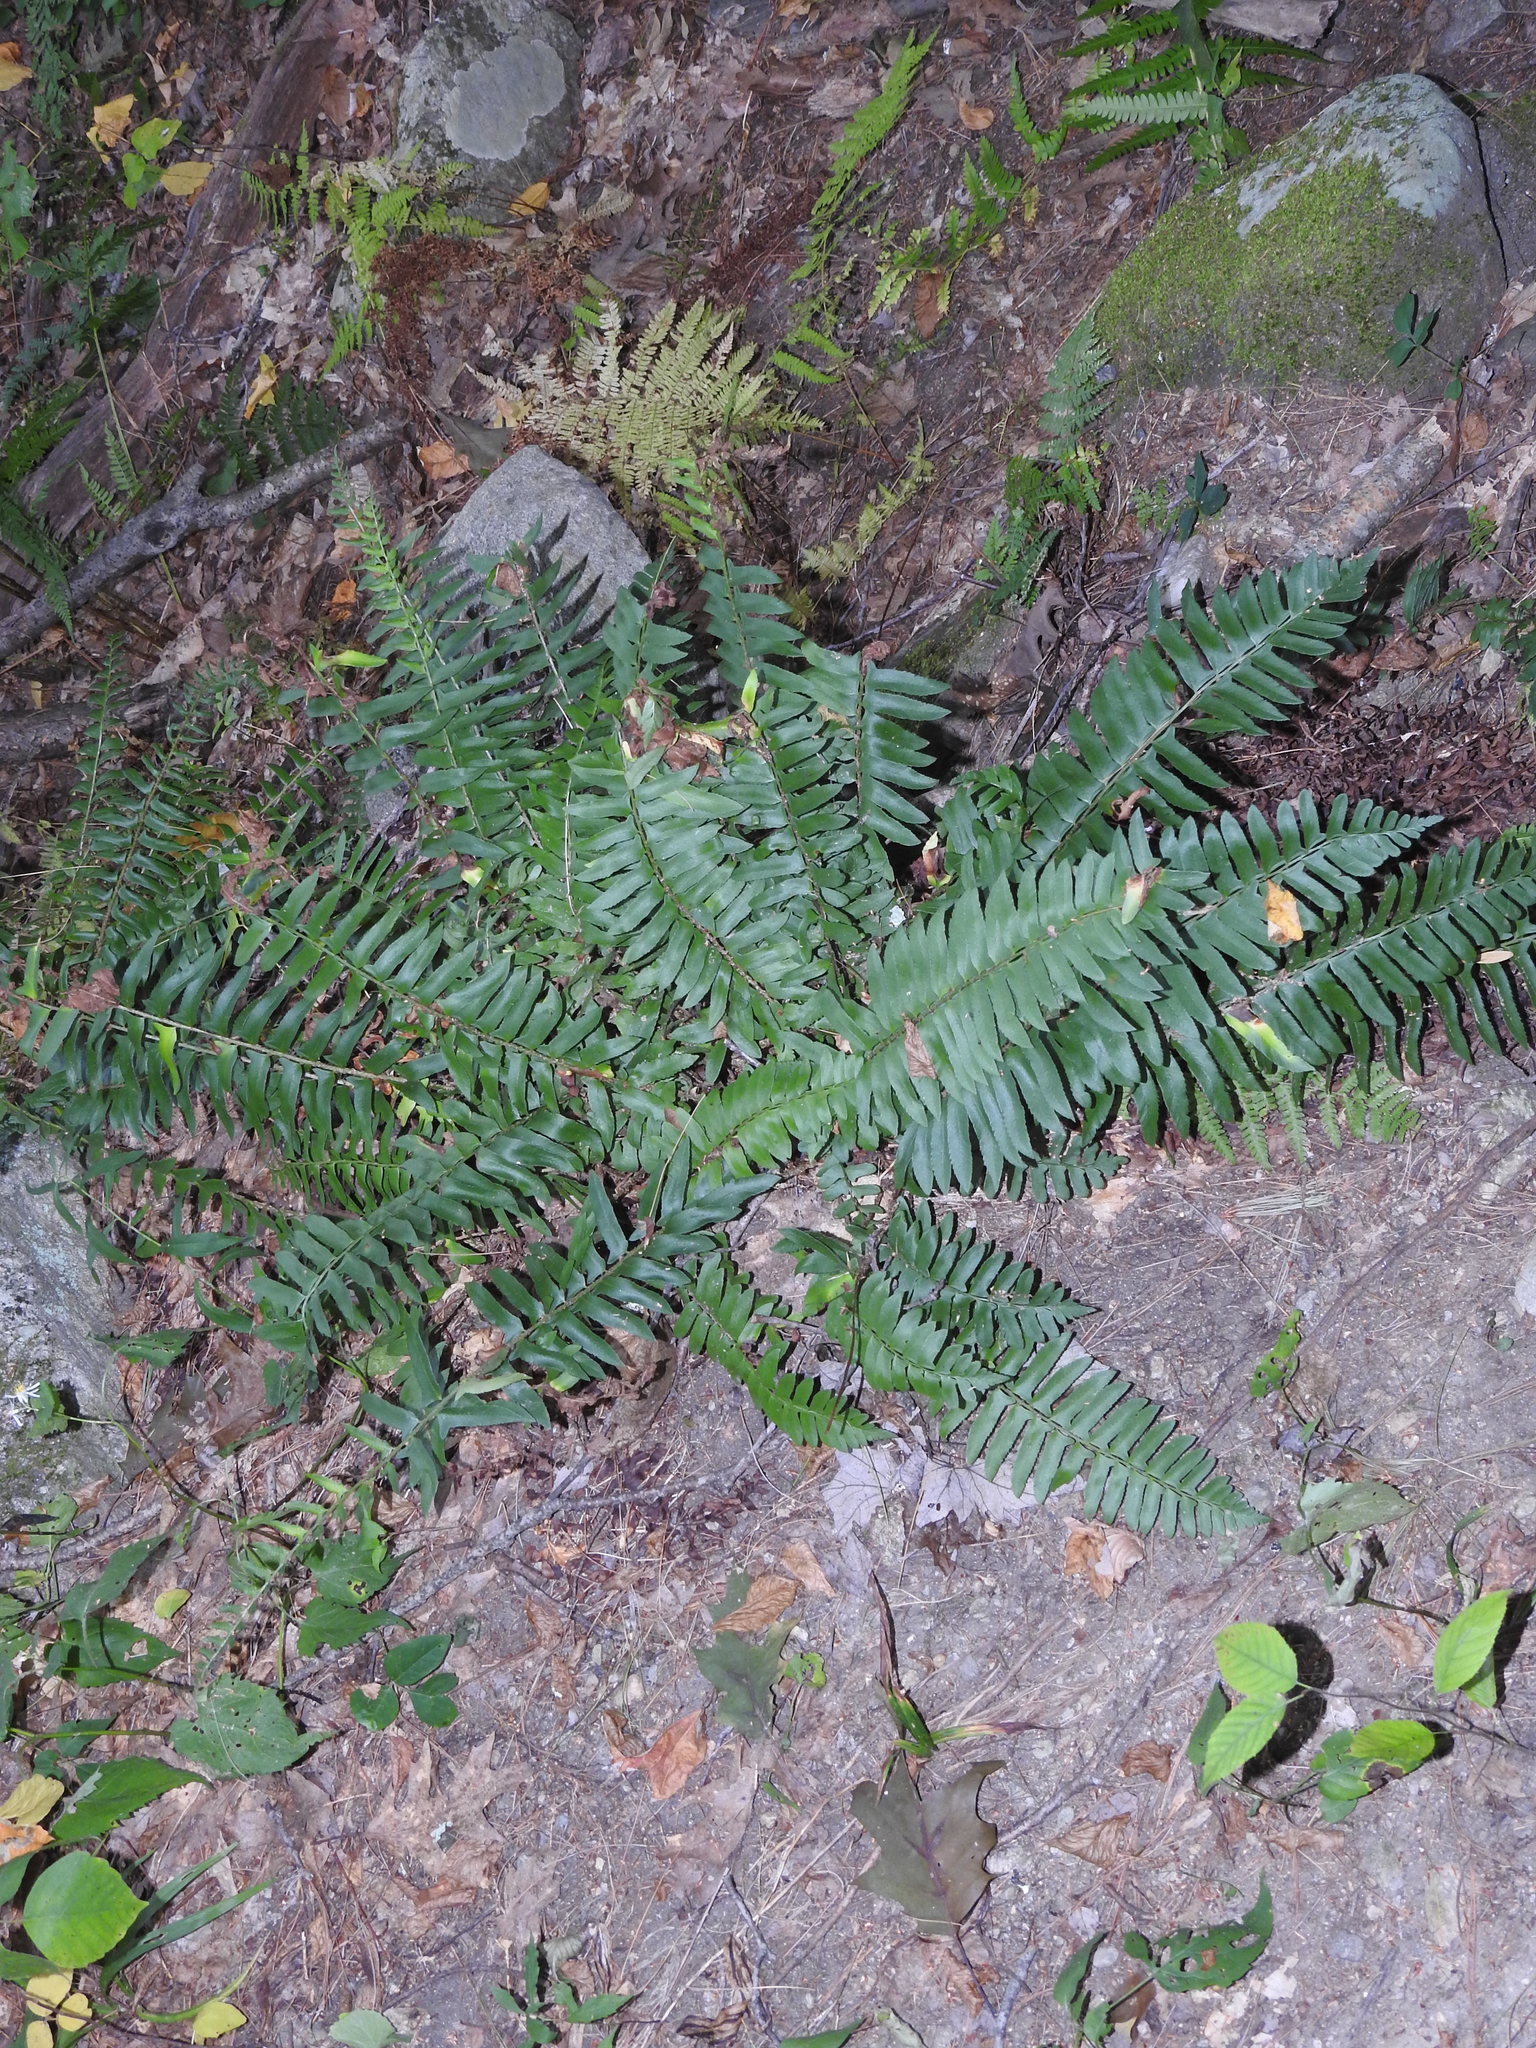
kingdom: Plantae
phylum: Tracheophyta
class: Polypodiopsida
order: Polypodiales
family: Dryopteridaceae
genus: Polystichum
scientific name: Polystichum acrostichoides
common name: Christmas fern
